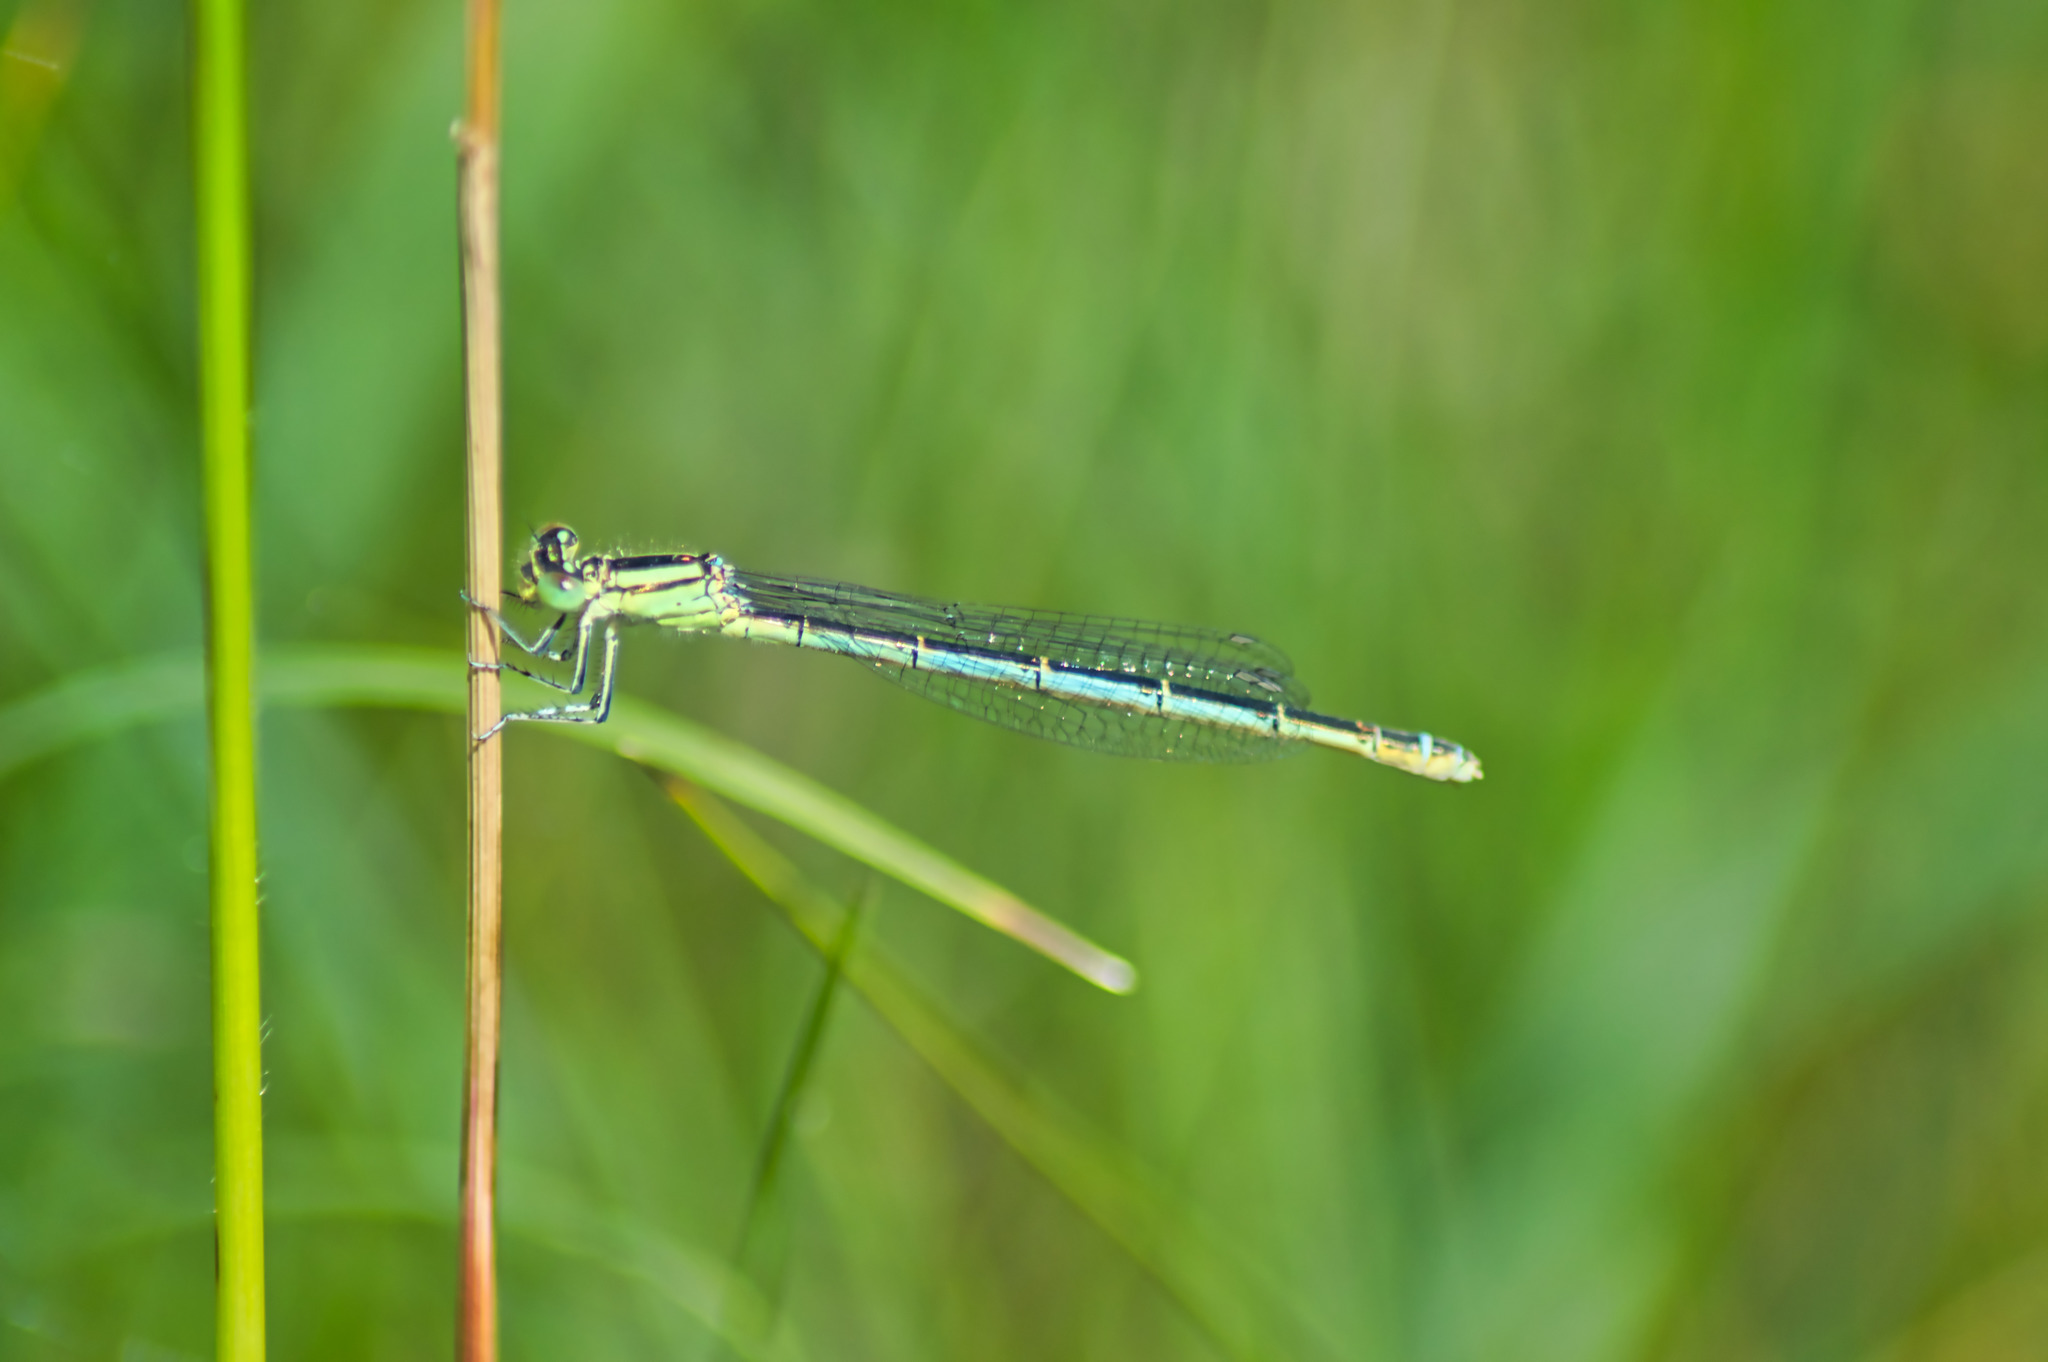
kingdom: Animalia
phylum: Arthropoda
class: Insecta
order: Odonata
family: Coenagrionidae
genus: Erythromma
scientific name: Erythromma lindenii
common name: Blue-eye
